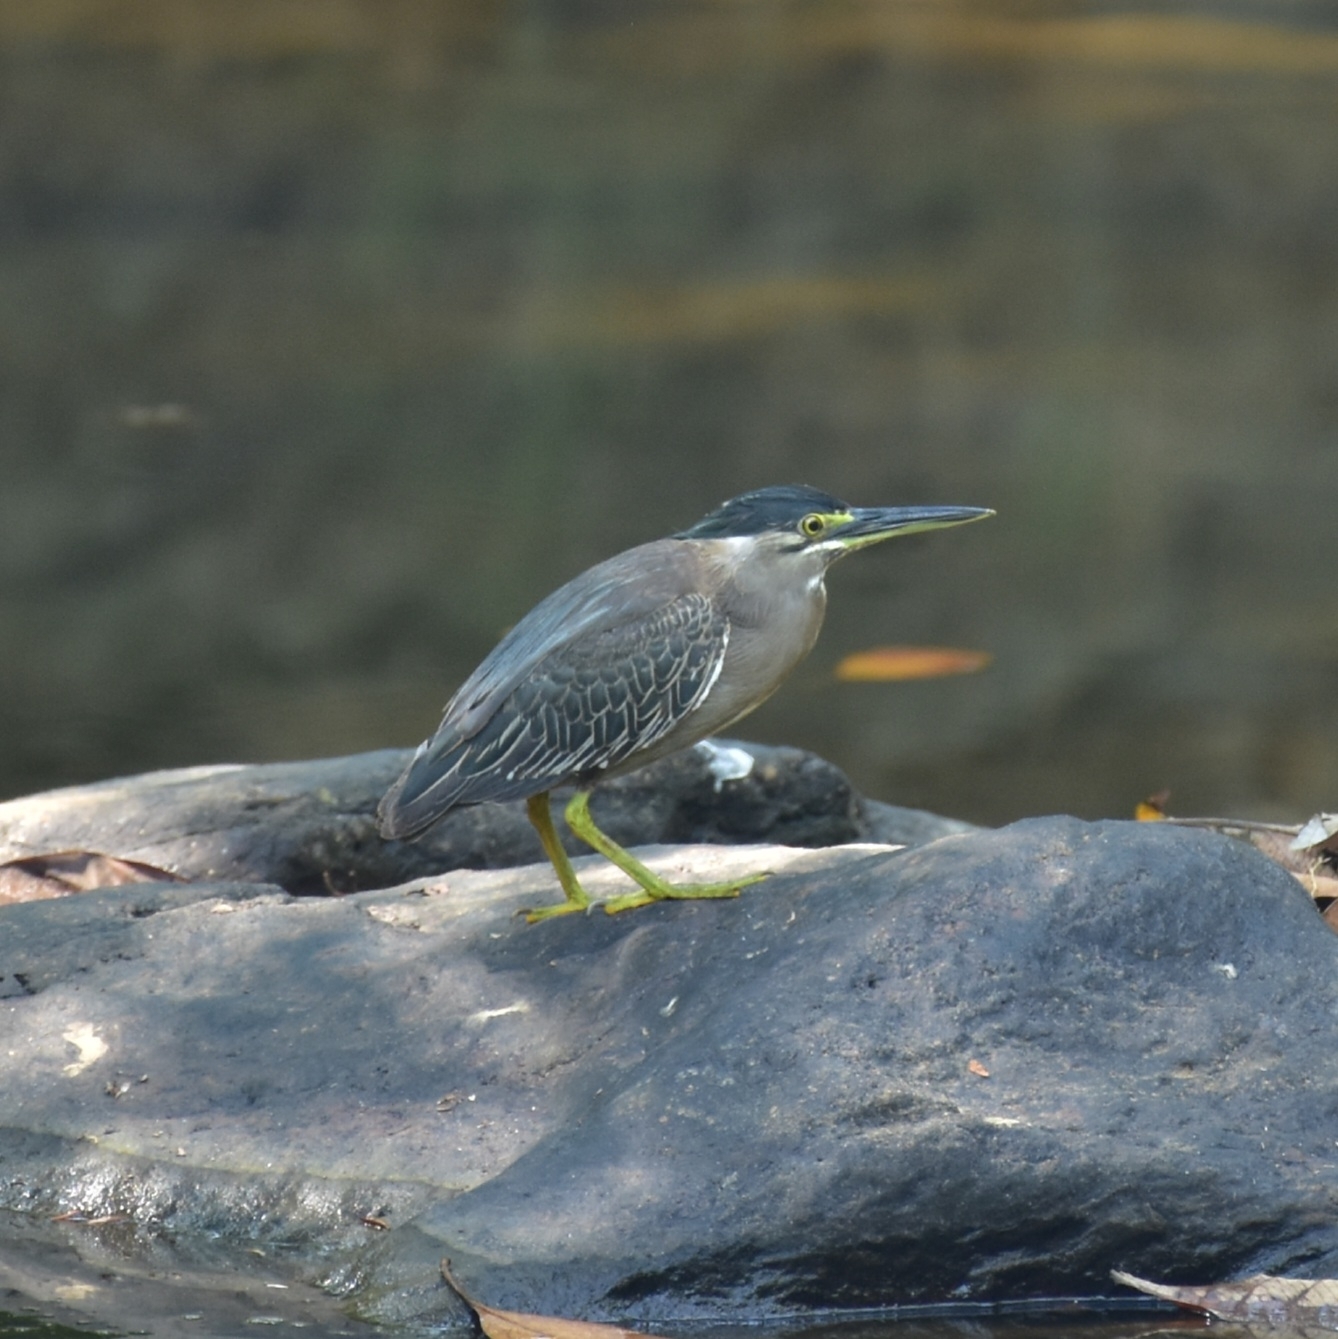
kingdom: Animalia
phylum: Chordata
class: Aves
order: Pelecaniformes
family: Ardeidae
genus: Butorides
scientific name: Butorides striata
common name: Striated heron
